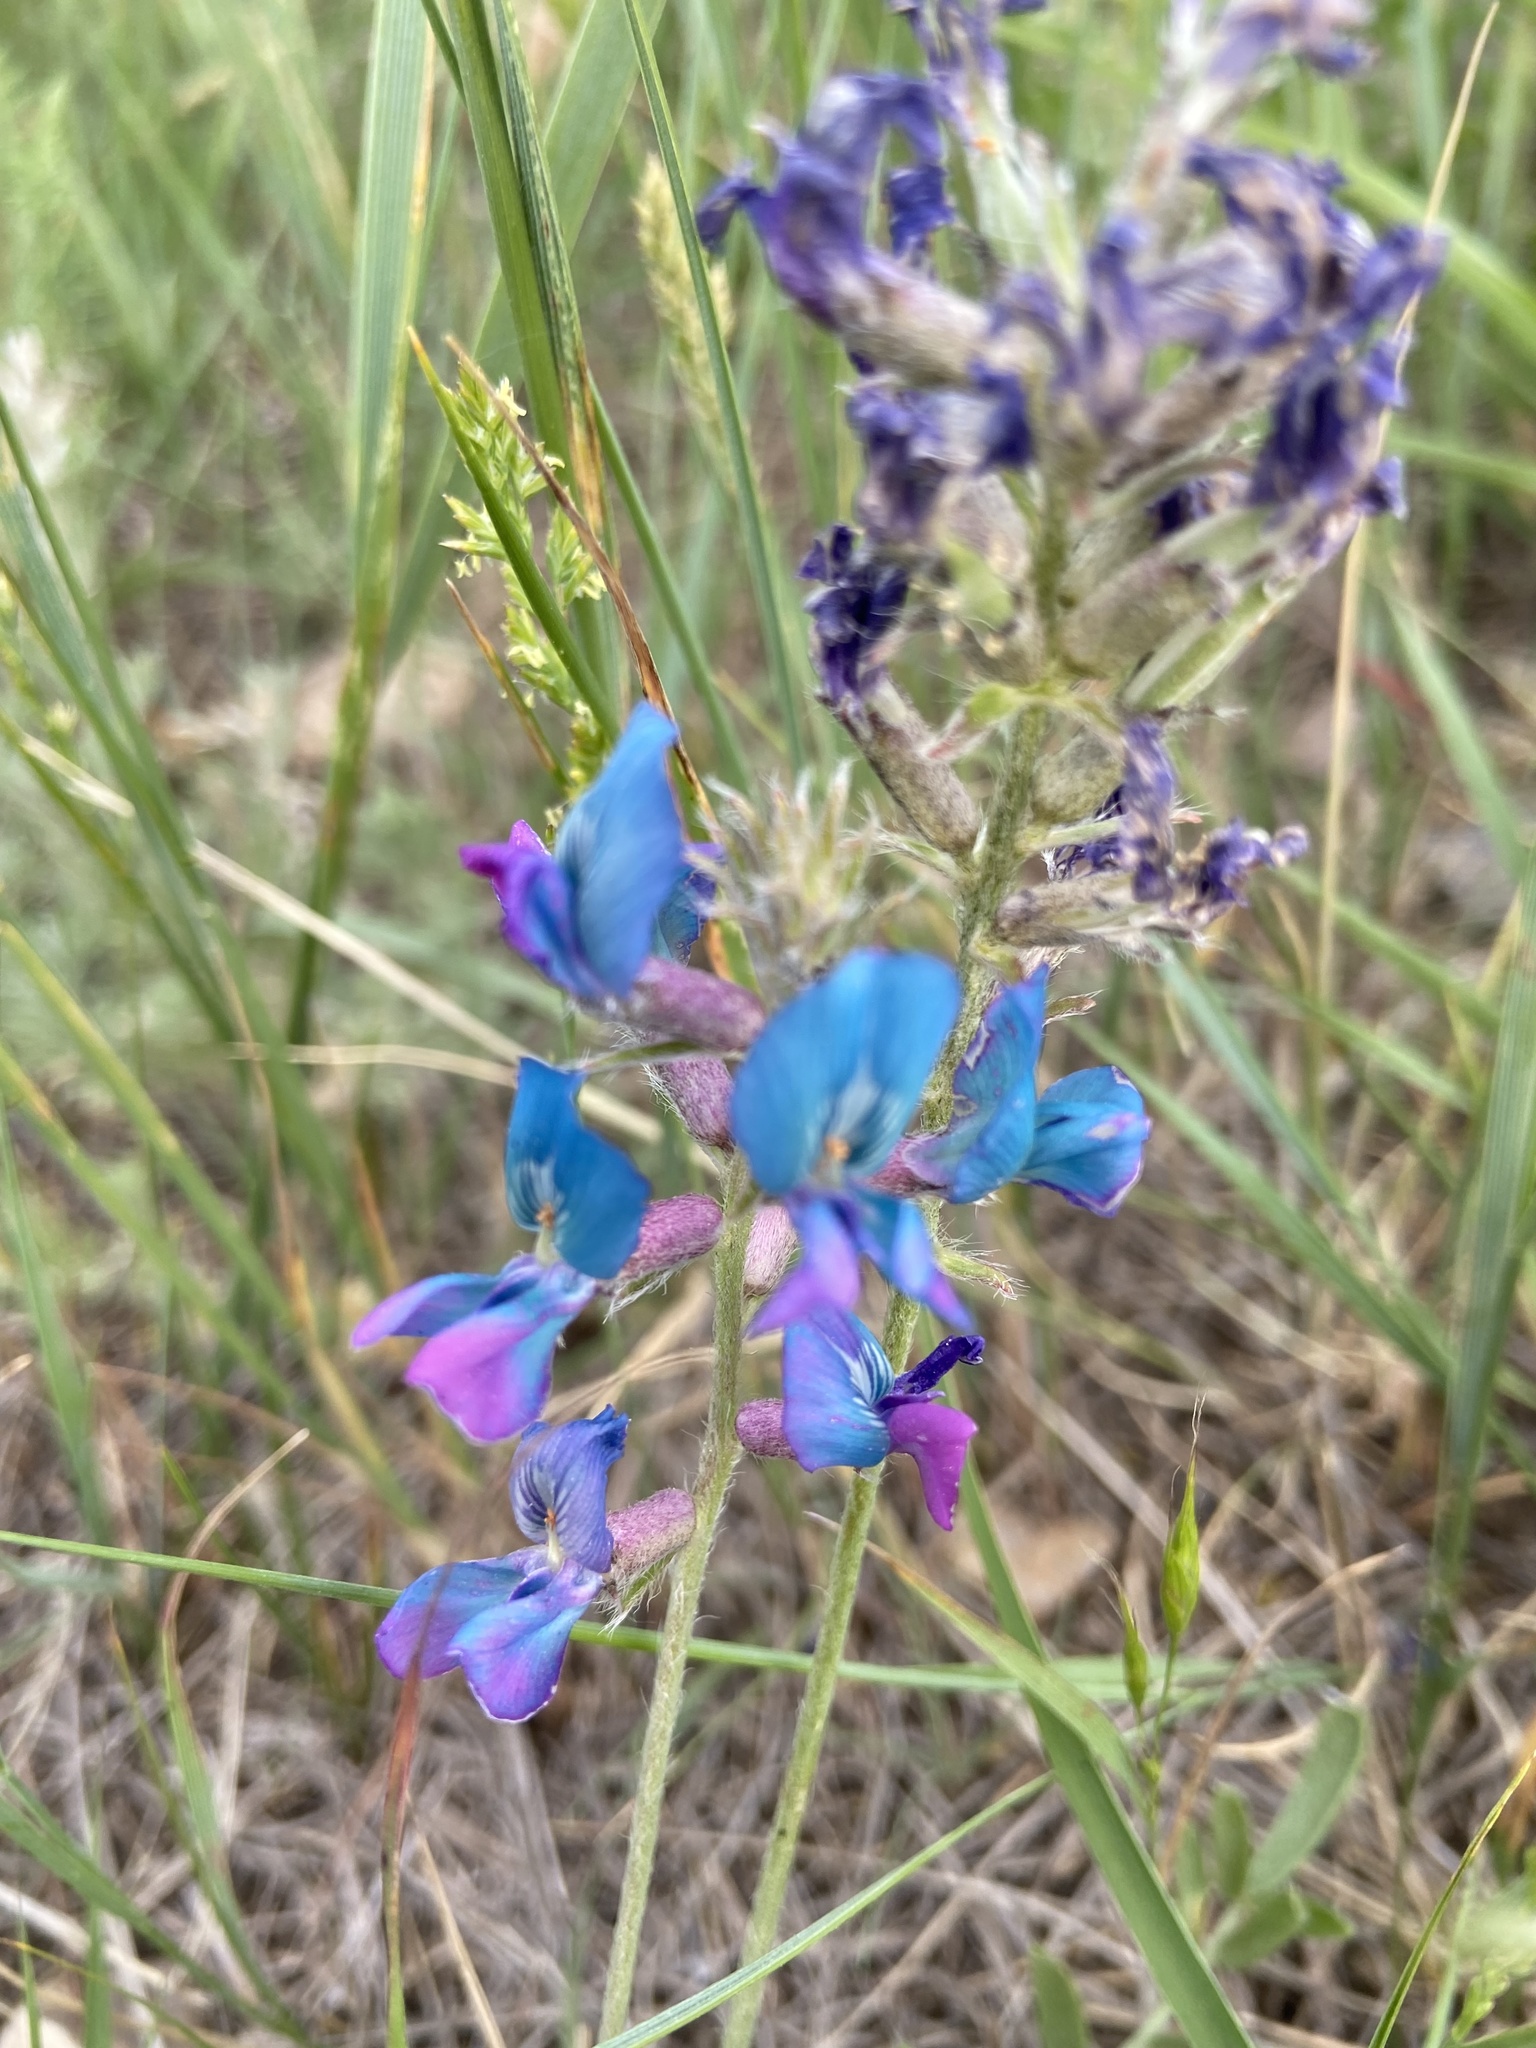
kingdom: Plantae
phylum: Tracheophyta
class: Magnoliopsida
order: Fabales
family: Fabaceae
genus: Oxytropis
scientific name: Oxytropis lambertii
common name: Purple locoweed
